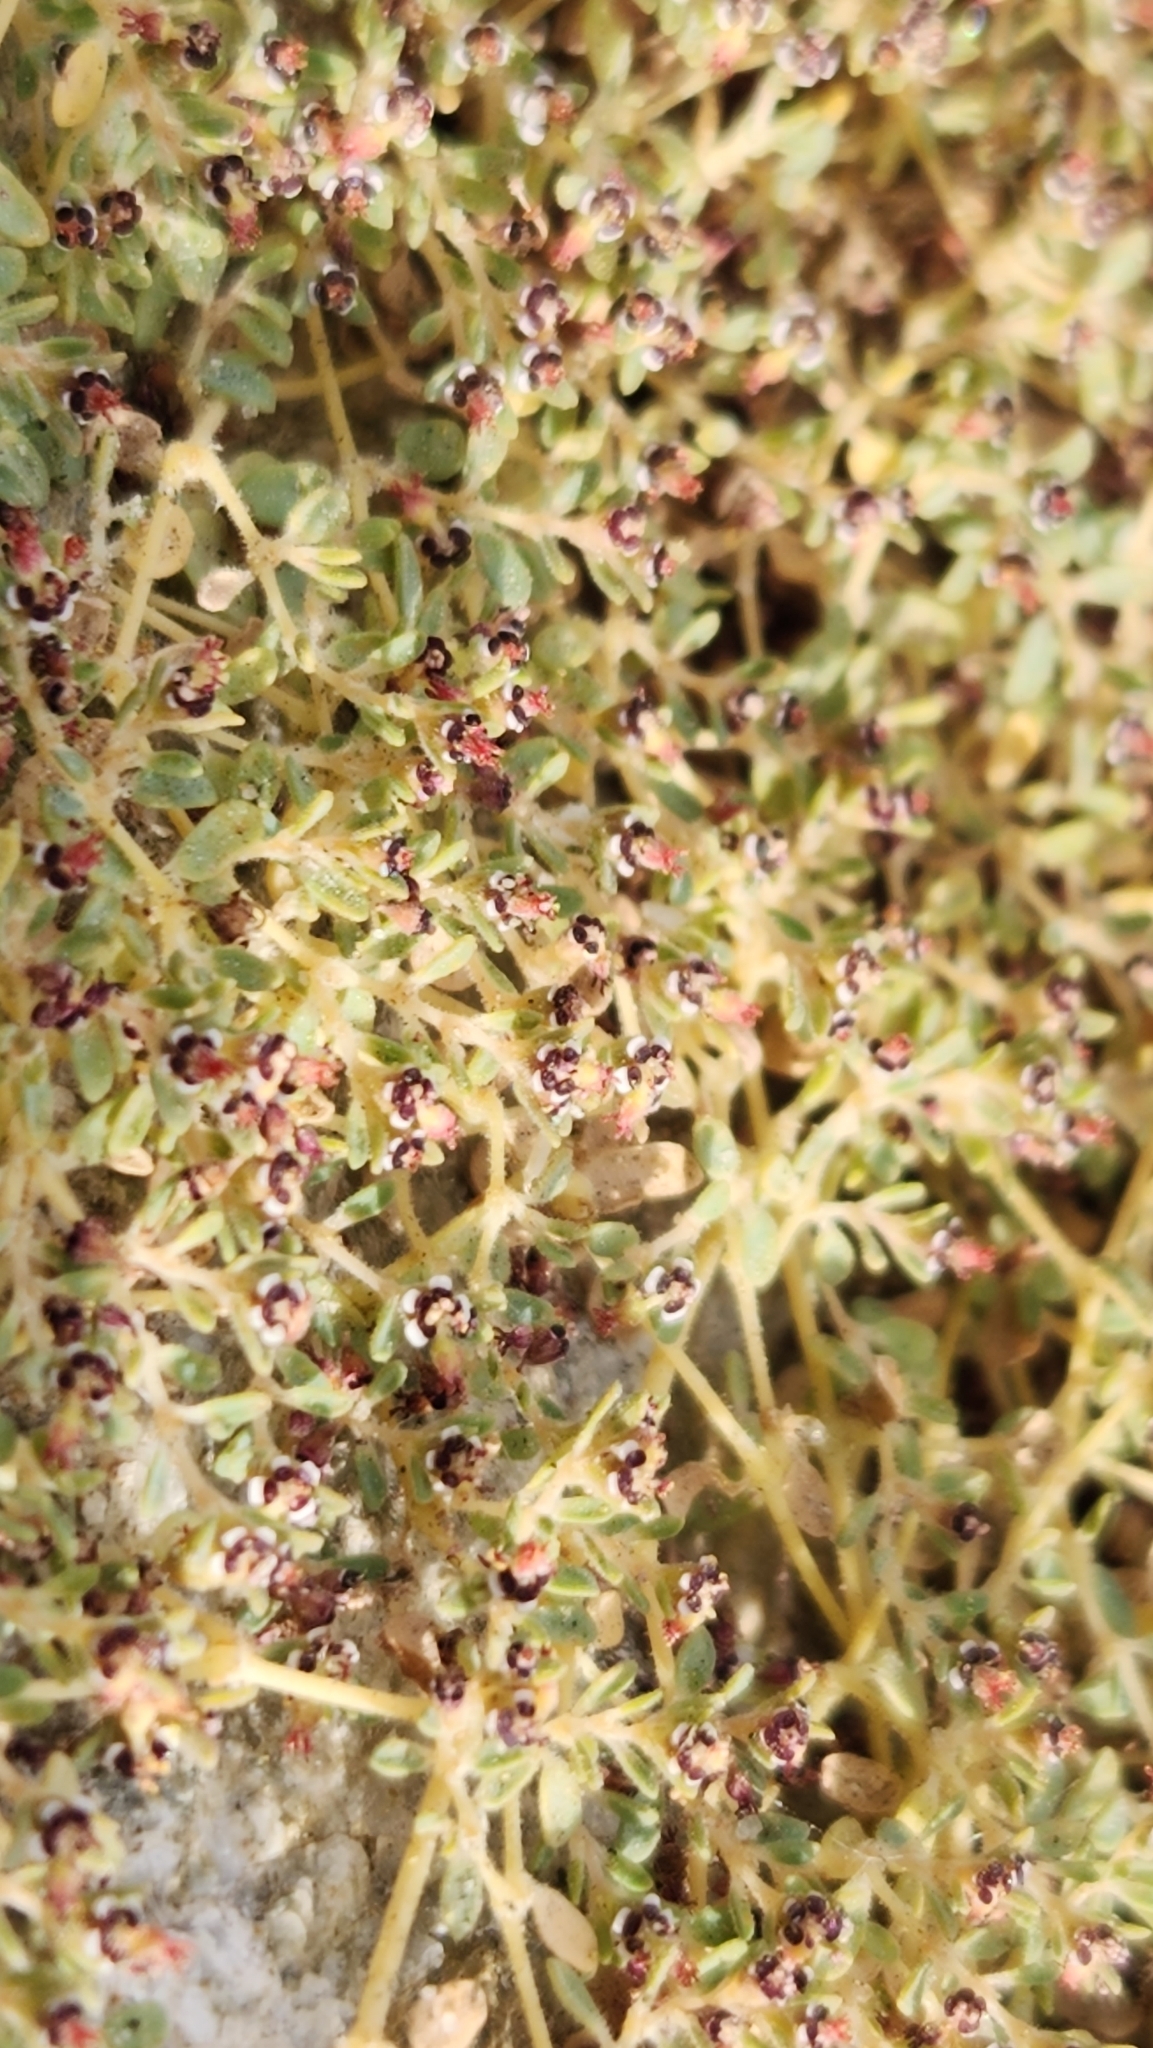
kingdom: Plantae
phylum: Tracheophyta
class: Magnoliopsida
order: Malpighiales
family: Euphorbiaceae
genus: Euphorbia
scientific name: Euphorbia polycarpa
